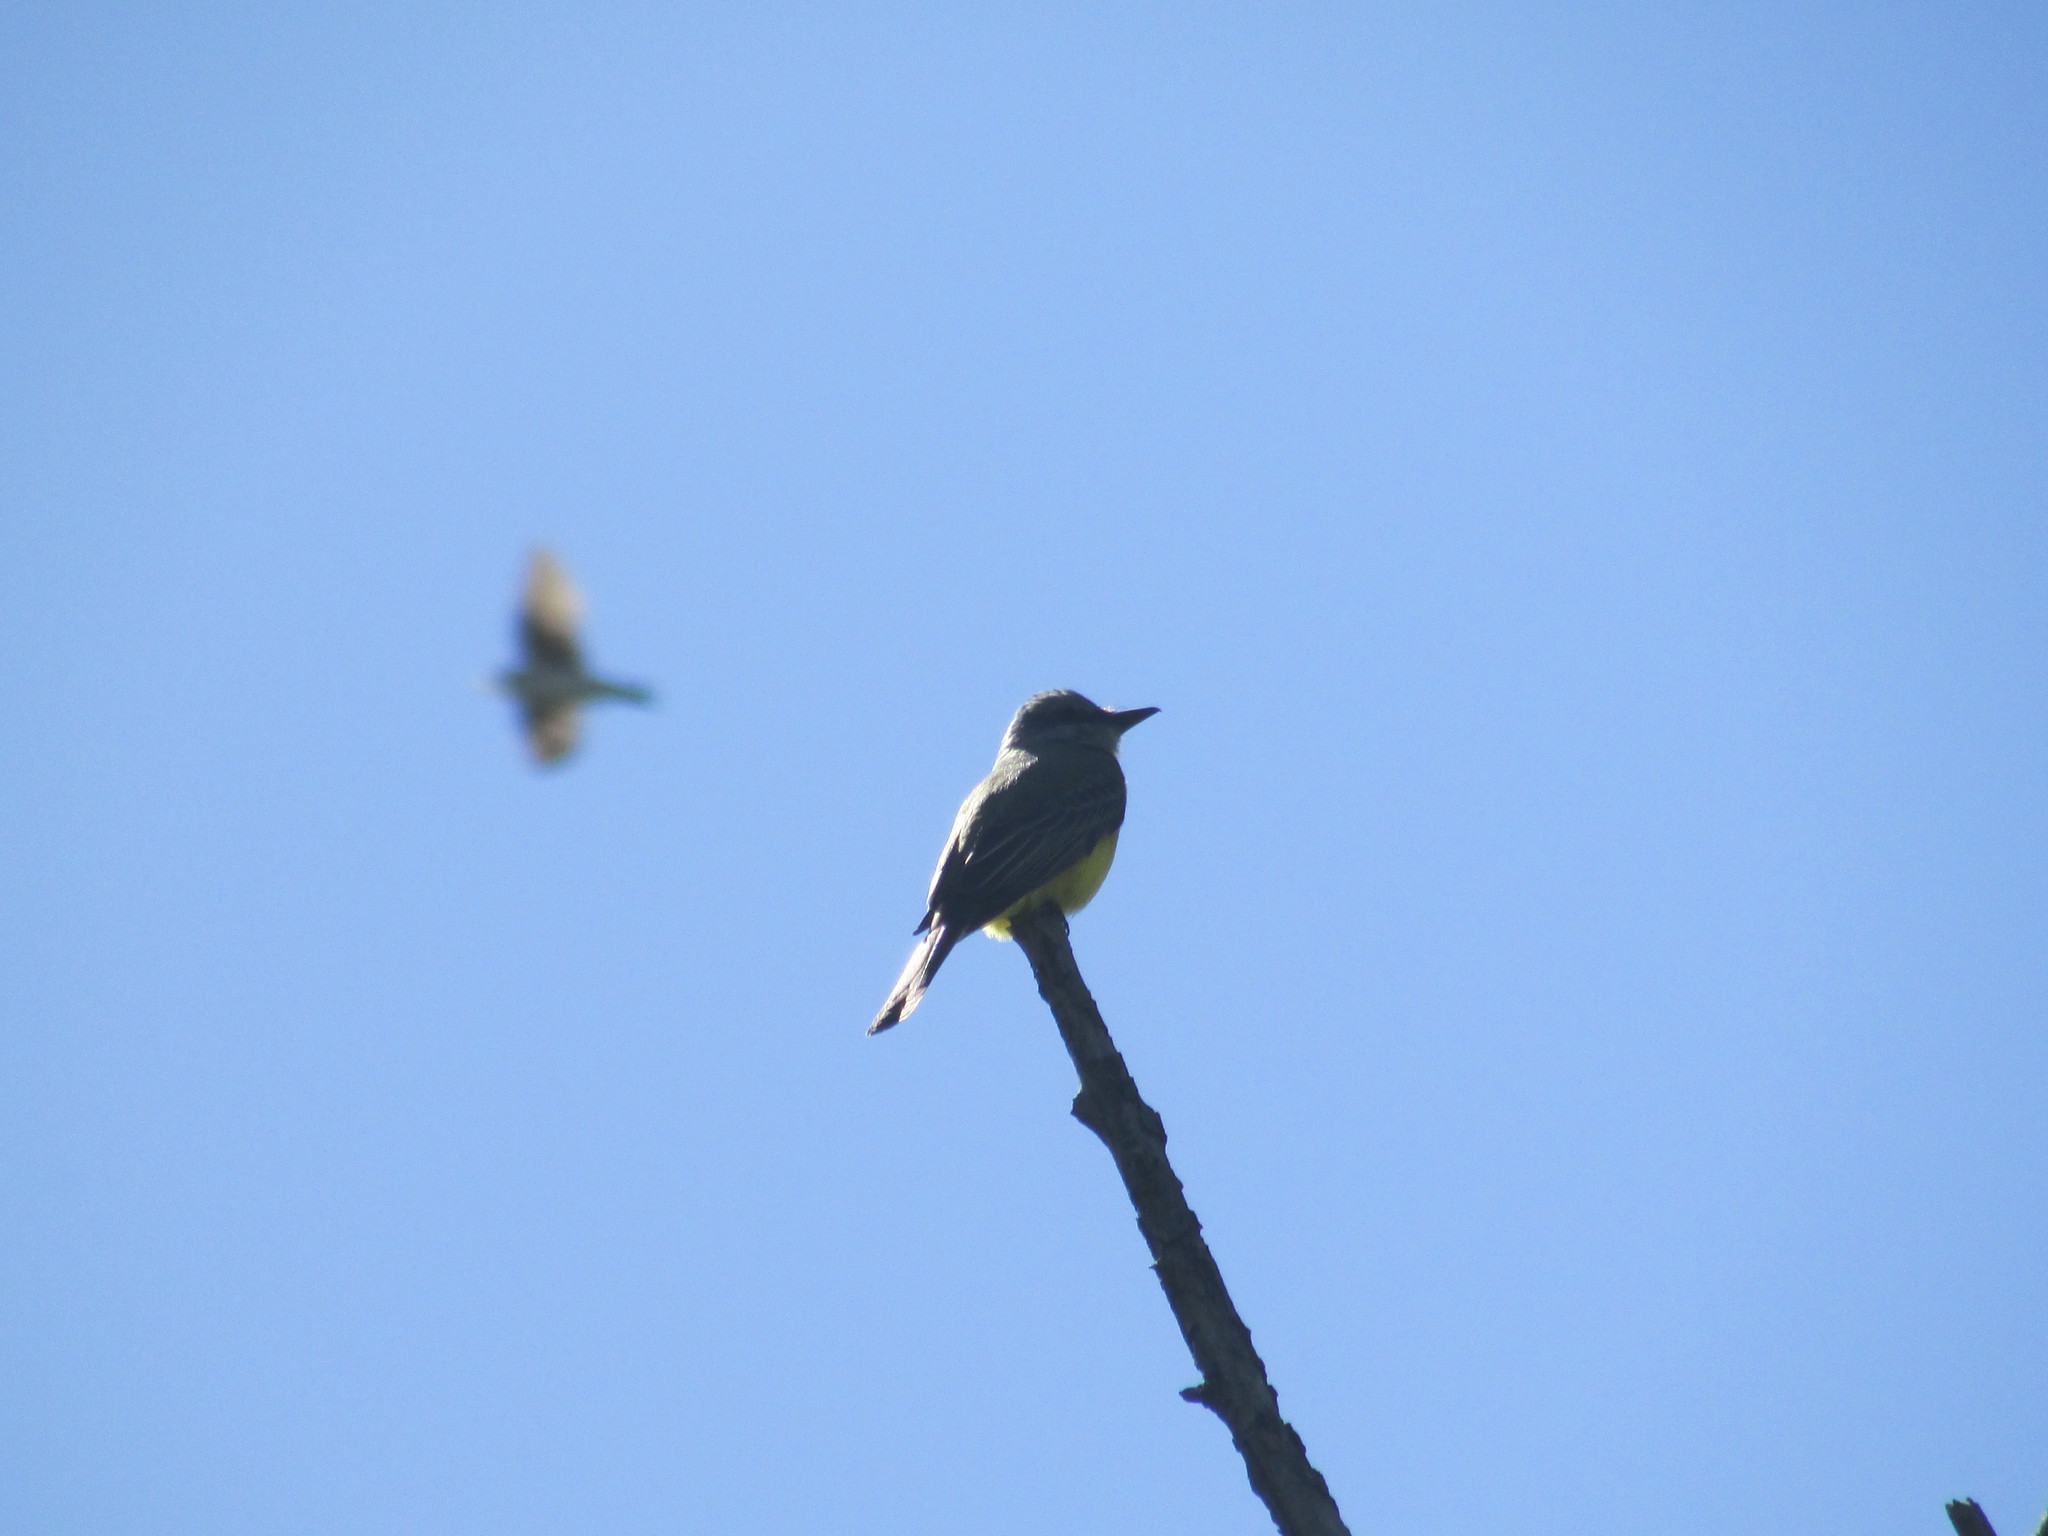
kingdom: Animalia
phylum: Chordata
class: Aves
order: Passeriformes
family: Tyrannidae
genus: Tyrannus
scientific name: Tyrannus melancholicus
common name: Tropical kingbird
